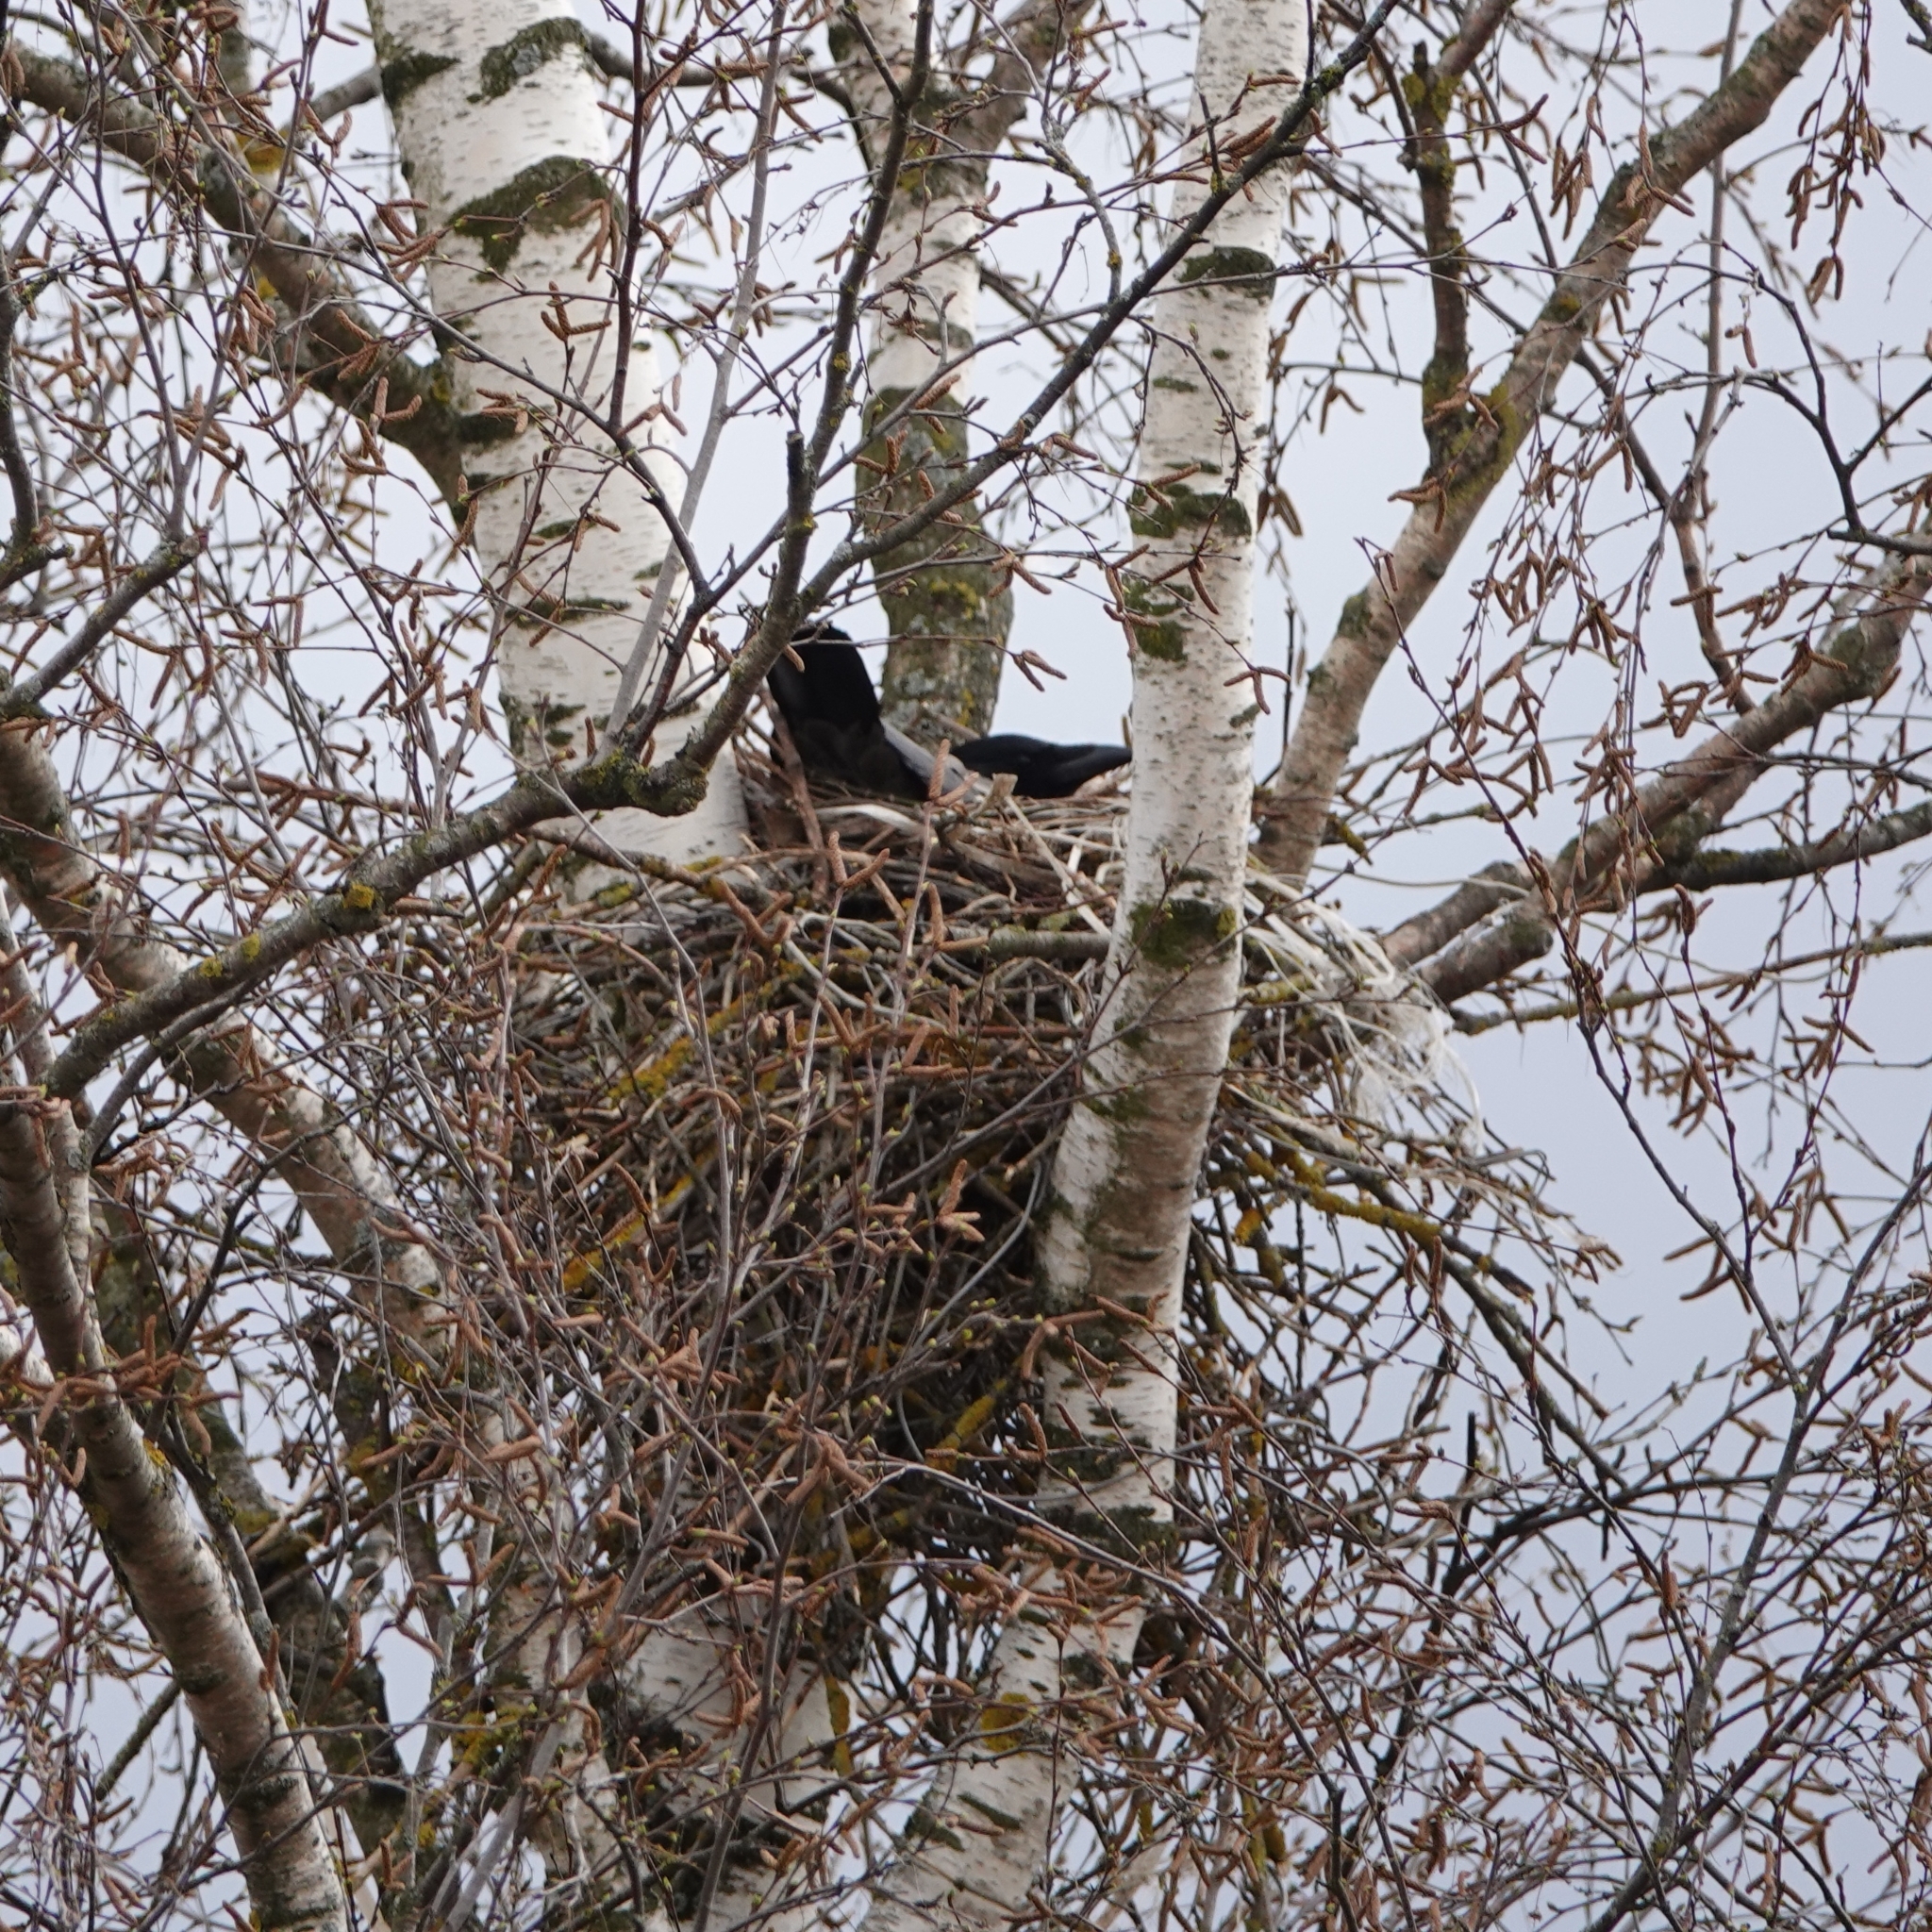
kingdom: Animalia
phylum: Chordata
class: Aves
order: Passeriformes
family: Corvidae
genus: Corvus
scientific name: Corvus cornix
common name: Hooded crow
